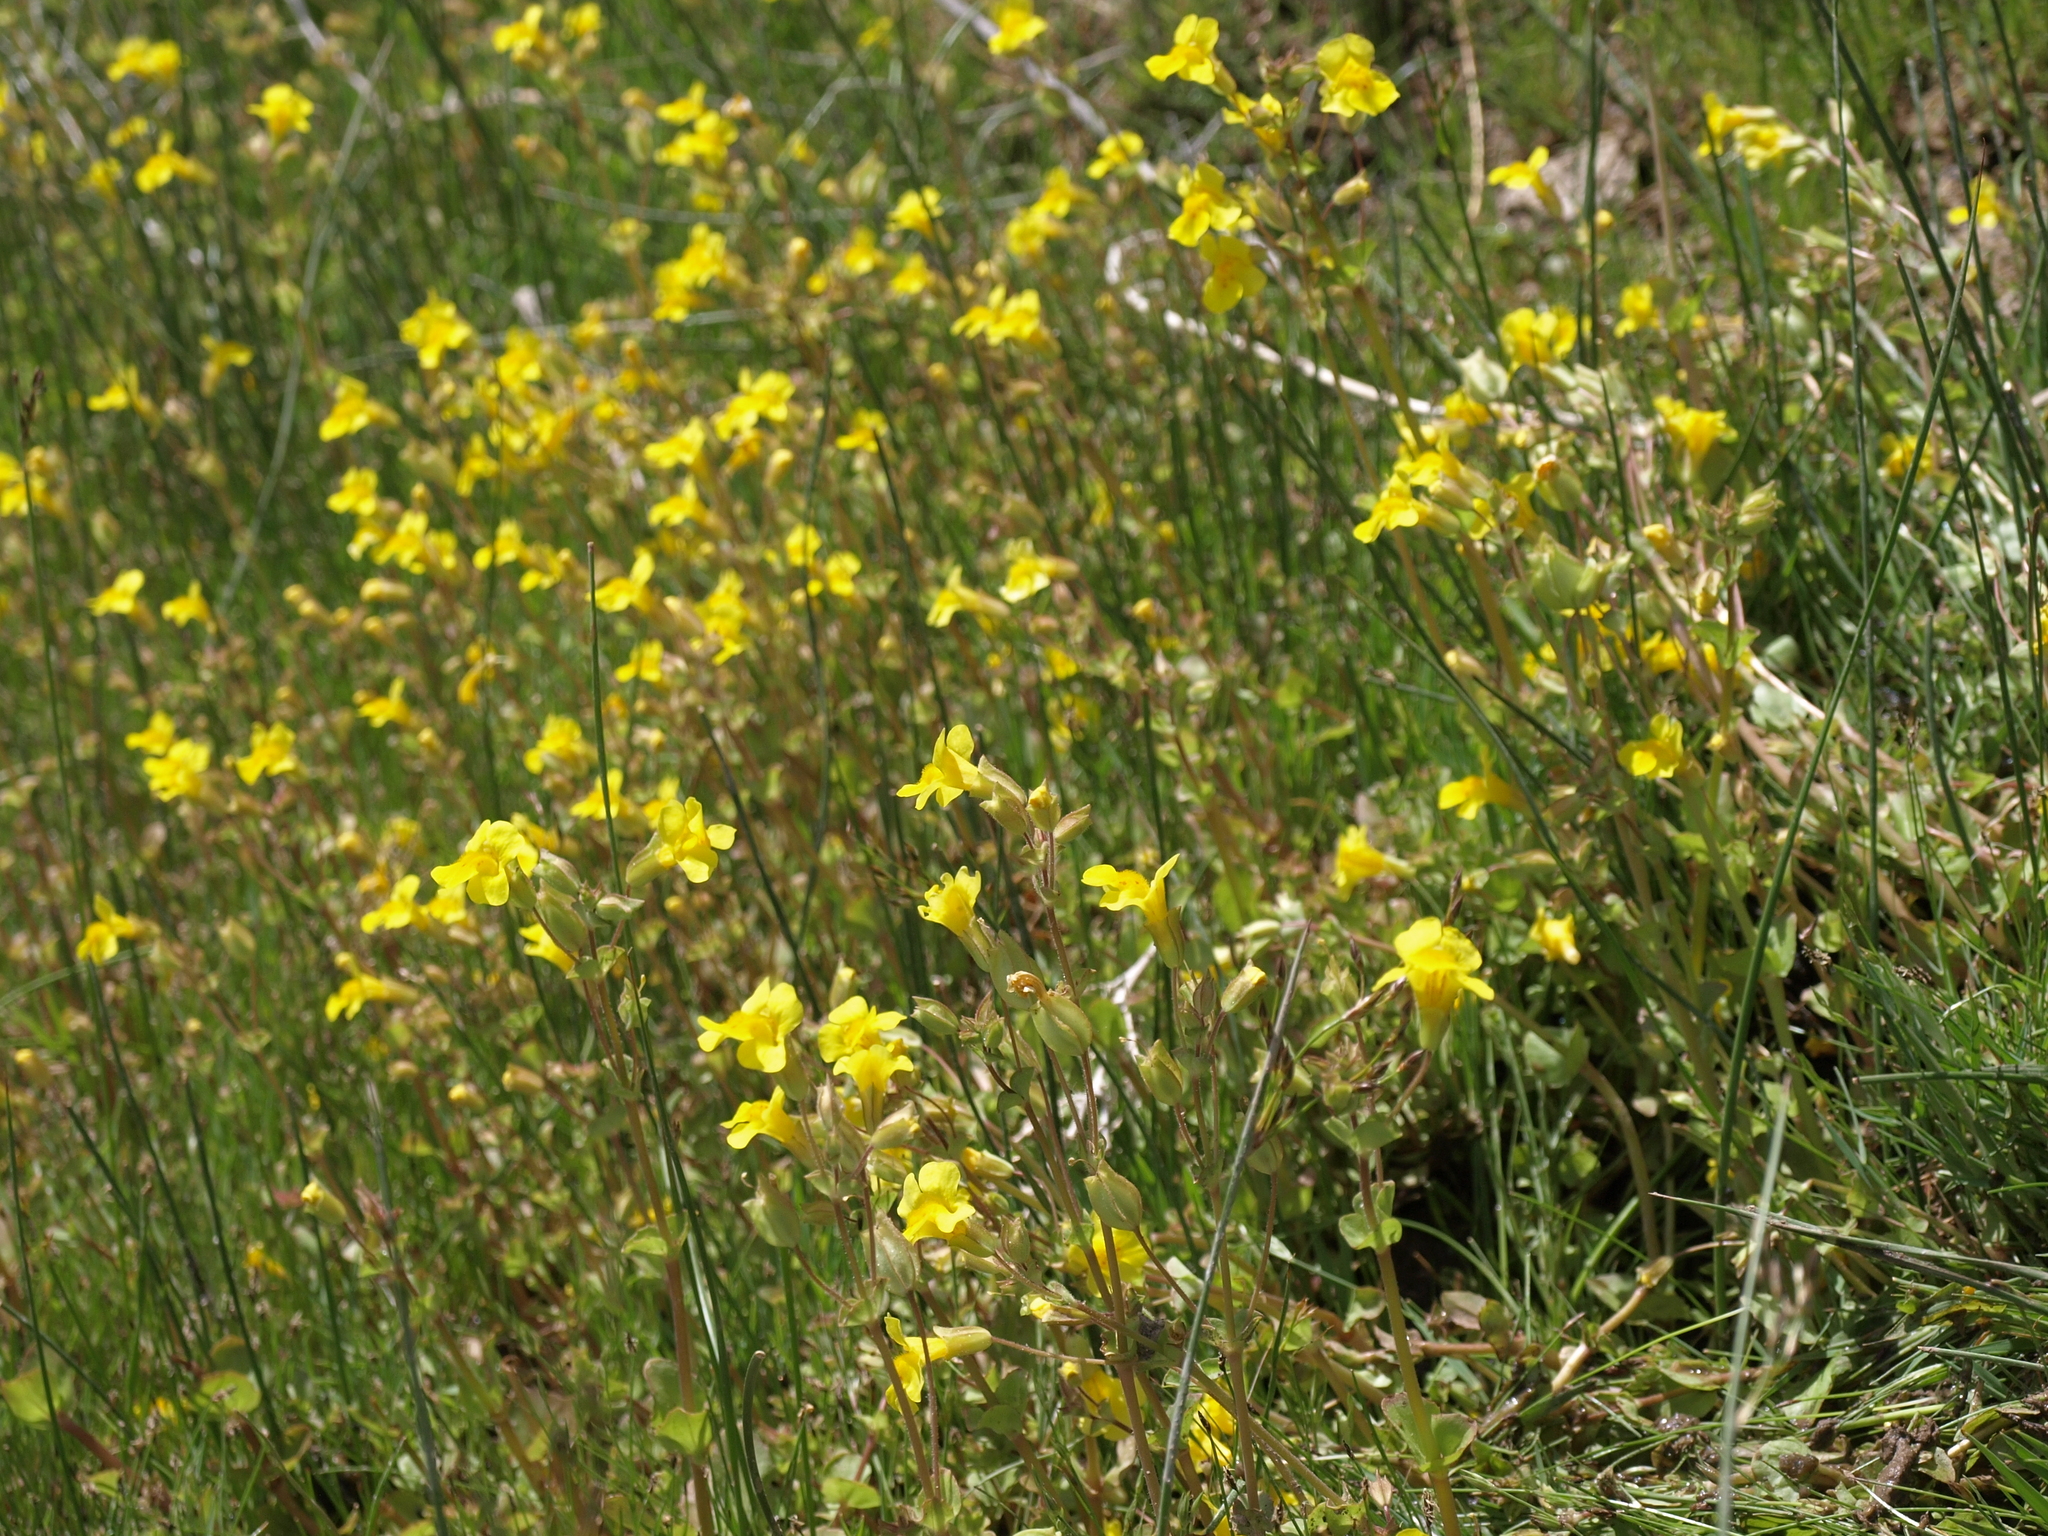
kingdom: Plantae
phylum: Tracheophyta
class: Magnoliopsida
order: Lamiales
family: Phrymaceae
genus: Erythranthe
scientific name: Erythranthe utahensis
